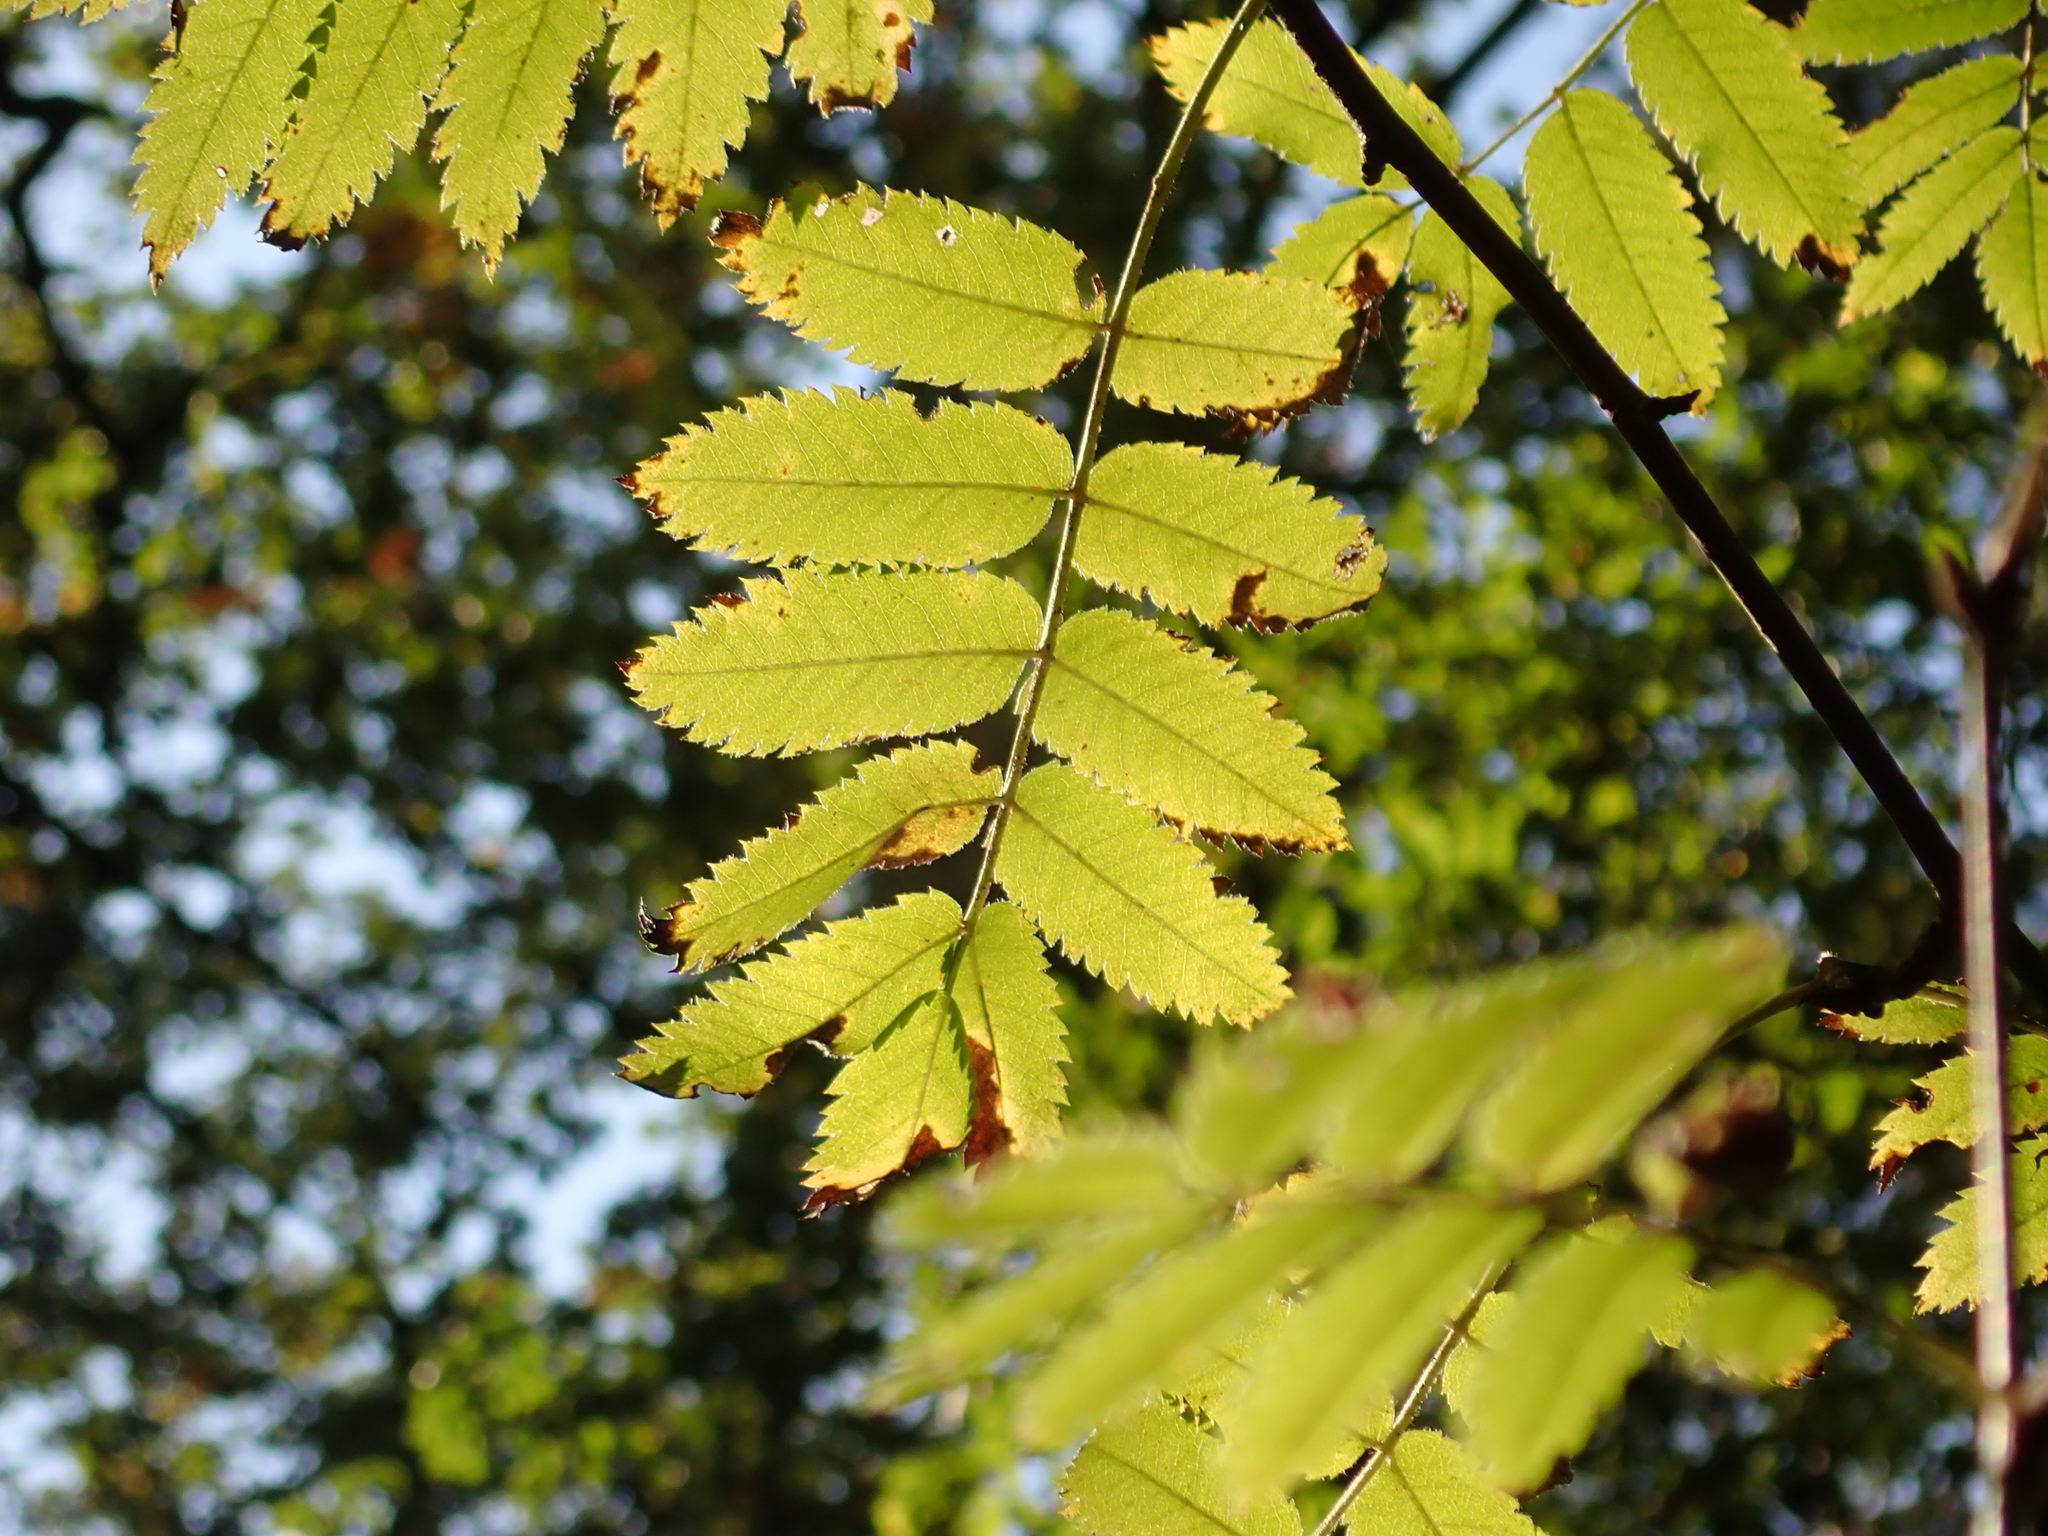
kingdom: Plantae
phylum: Tracheophyta
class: Magnoliopsida
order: Rosales
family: Rosaceae
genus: Sorbus
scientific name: Sorbus aucuparia
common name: Rowan
